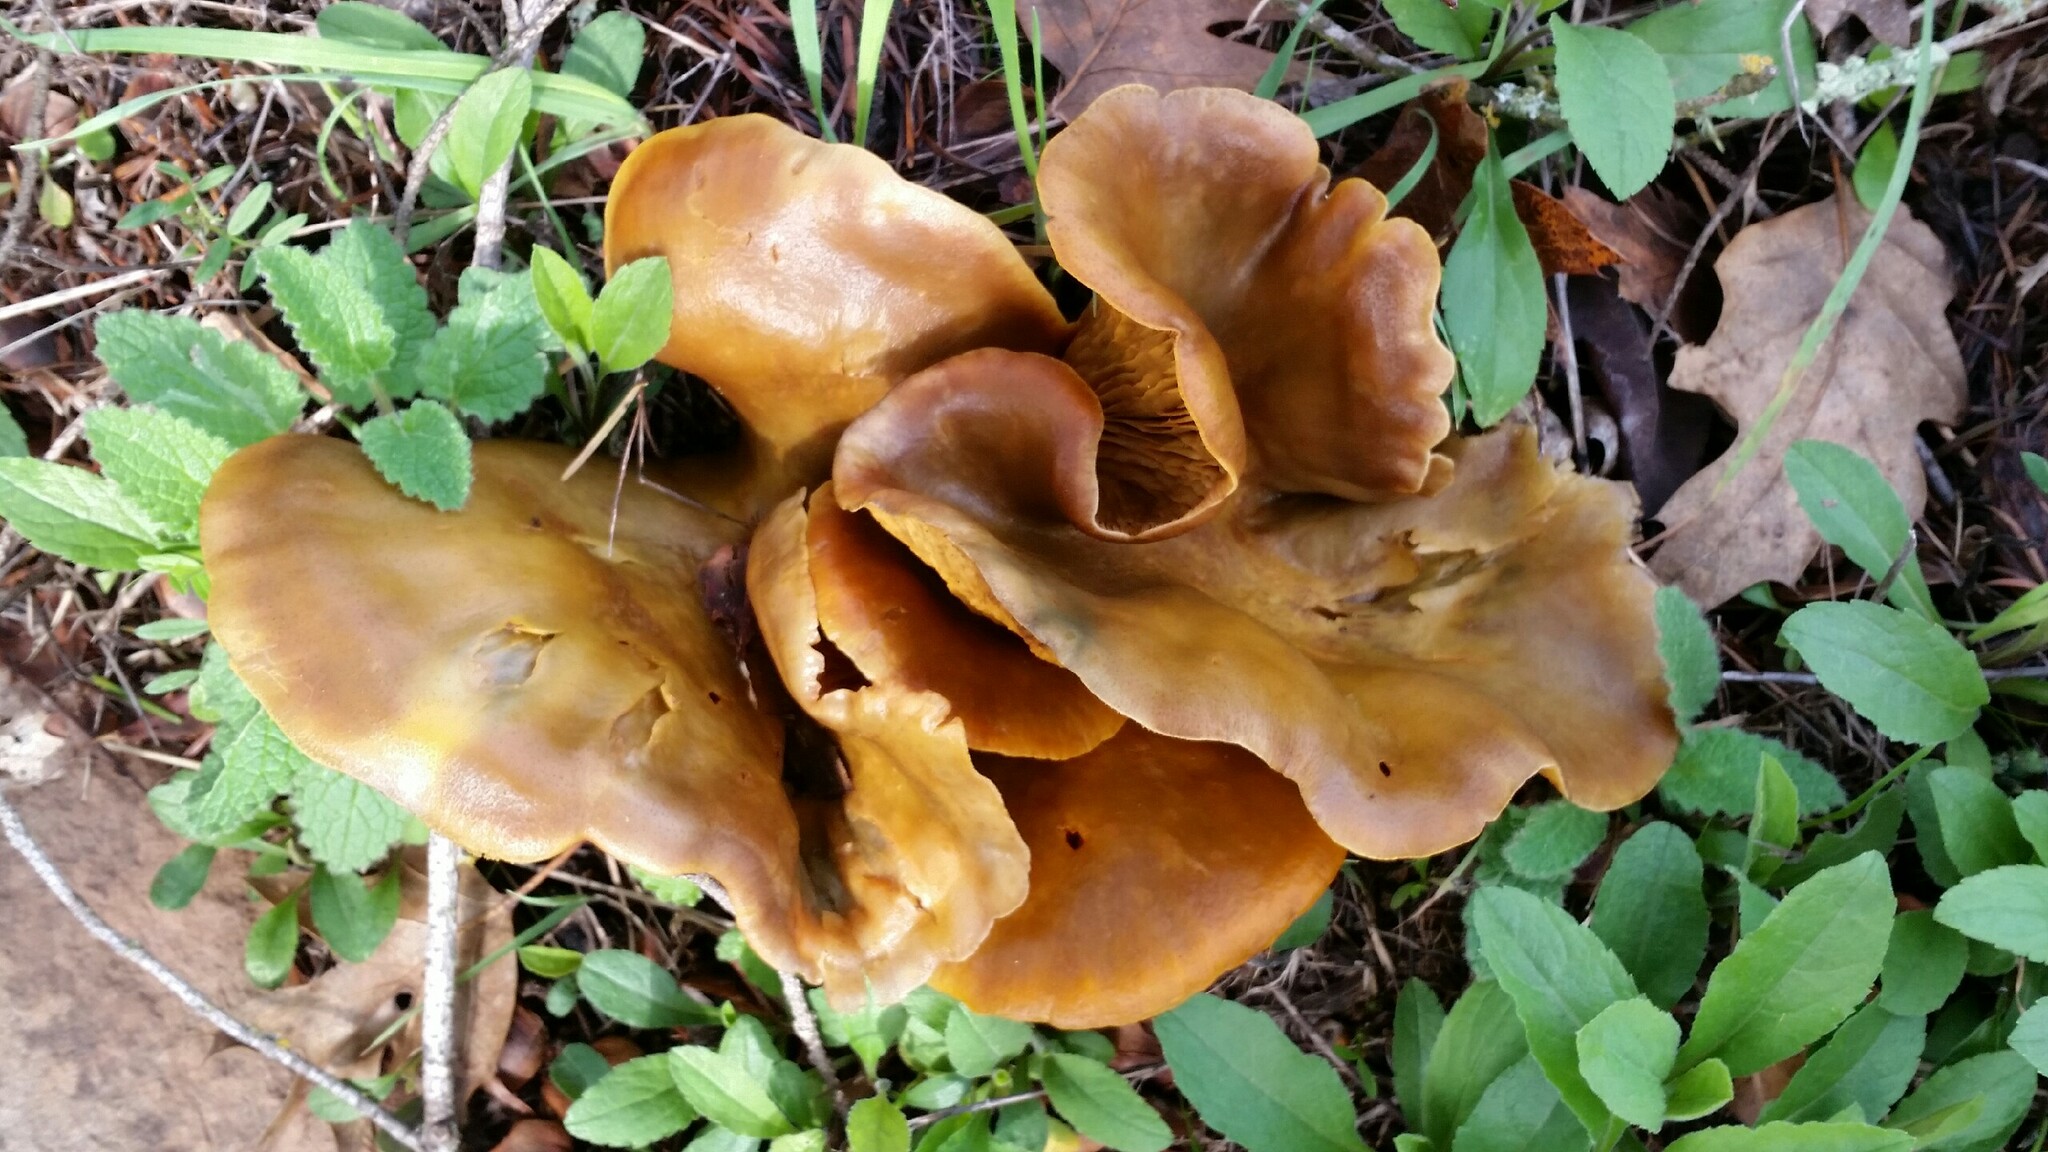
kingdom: Fungi
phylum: Basidiomycota
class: Agaricomycetes
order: Agaricales
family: Omphalotaceae
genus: Omphalotus
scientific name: Omphalotus olivascens
